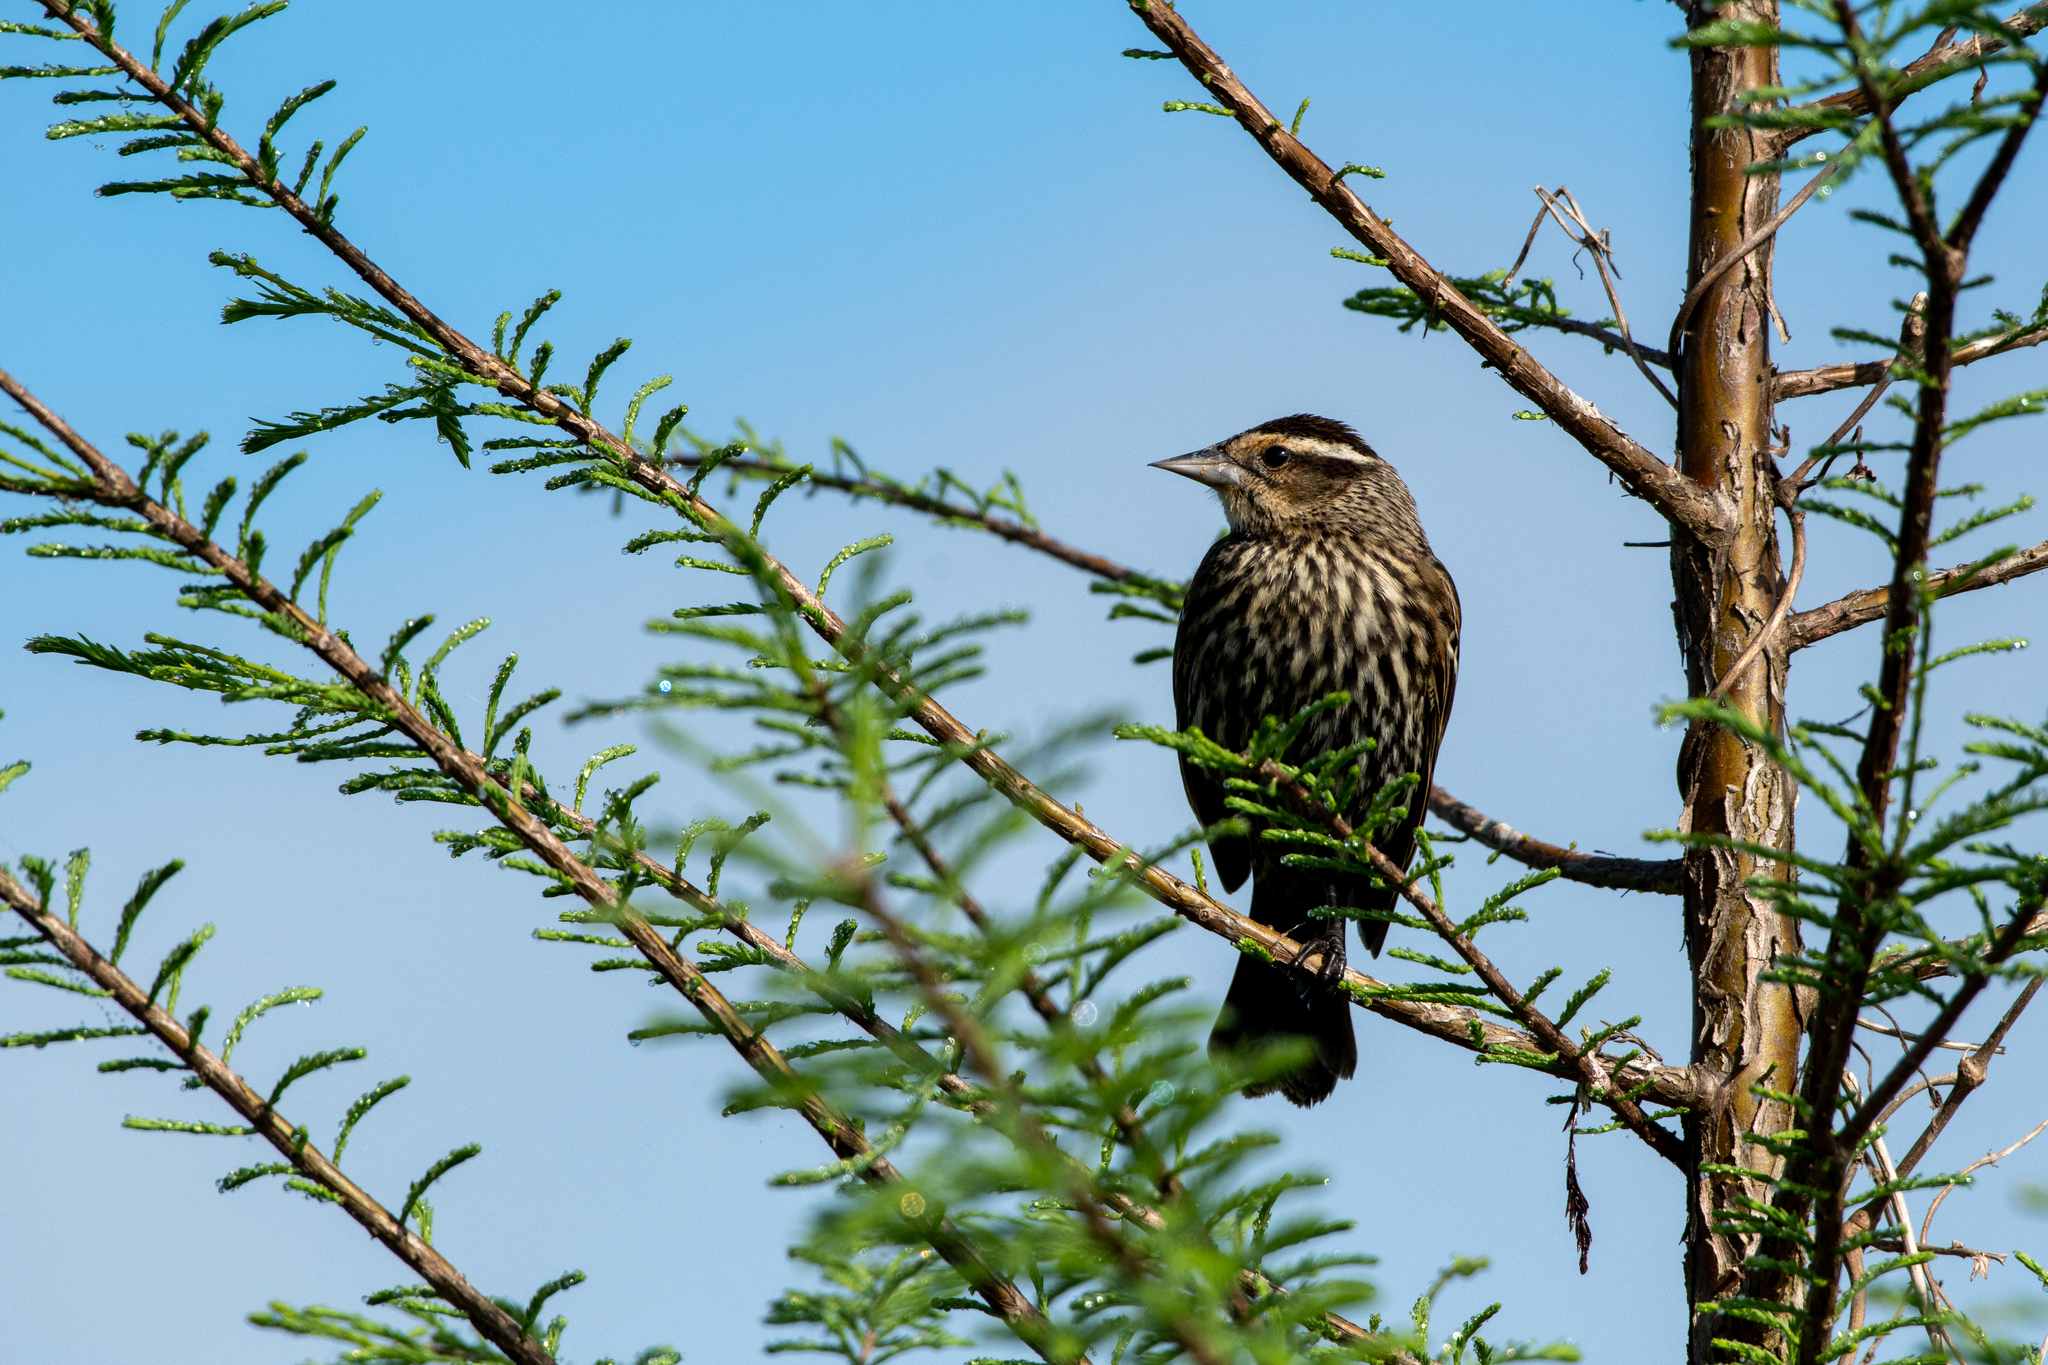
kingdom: Animalia
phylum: Chordata
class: Aves
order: Passeriformes
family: Icteridae
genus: Agelaius
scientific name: Agelaius phoeniceus
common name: Red-winged blackbird
